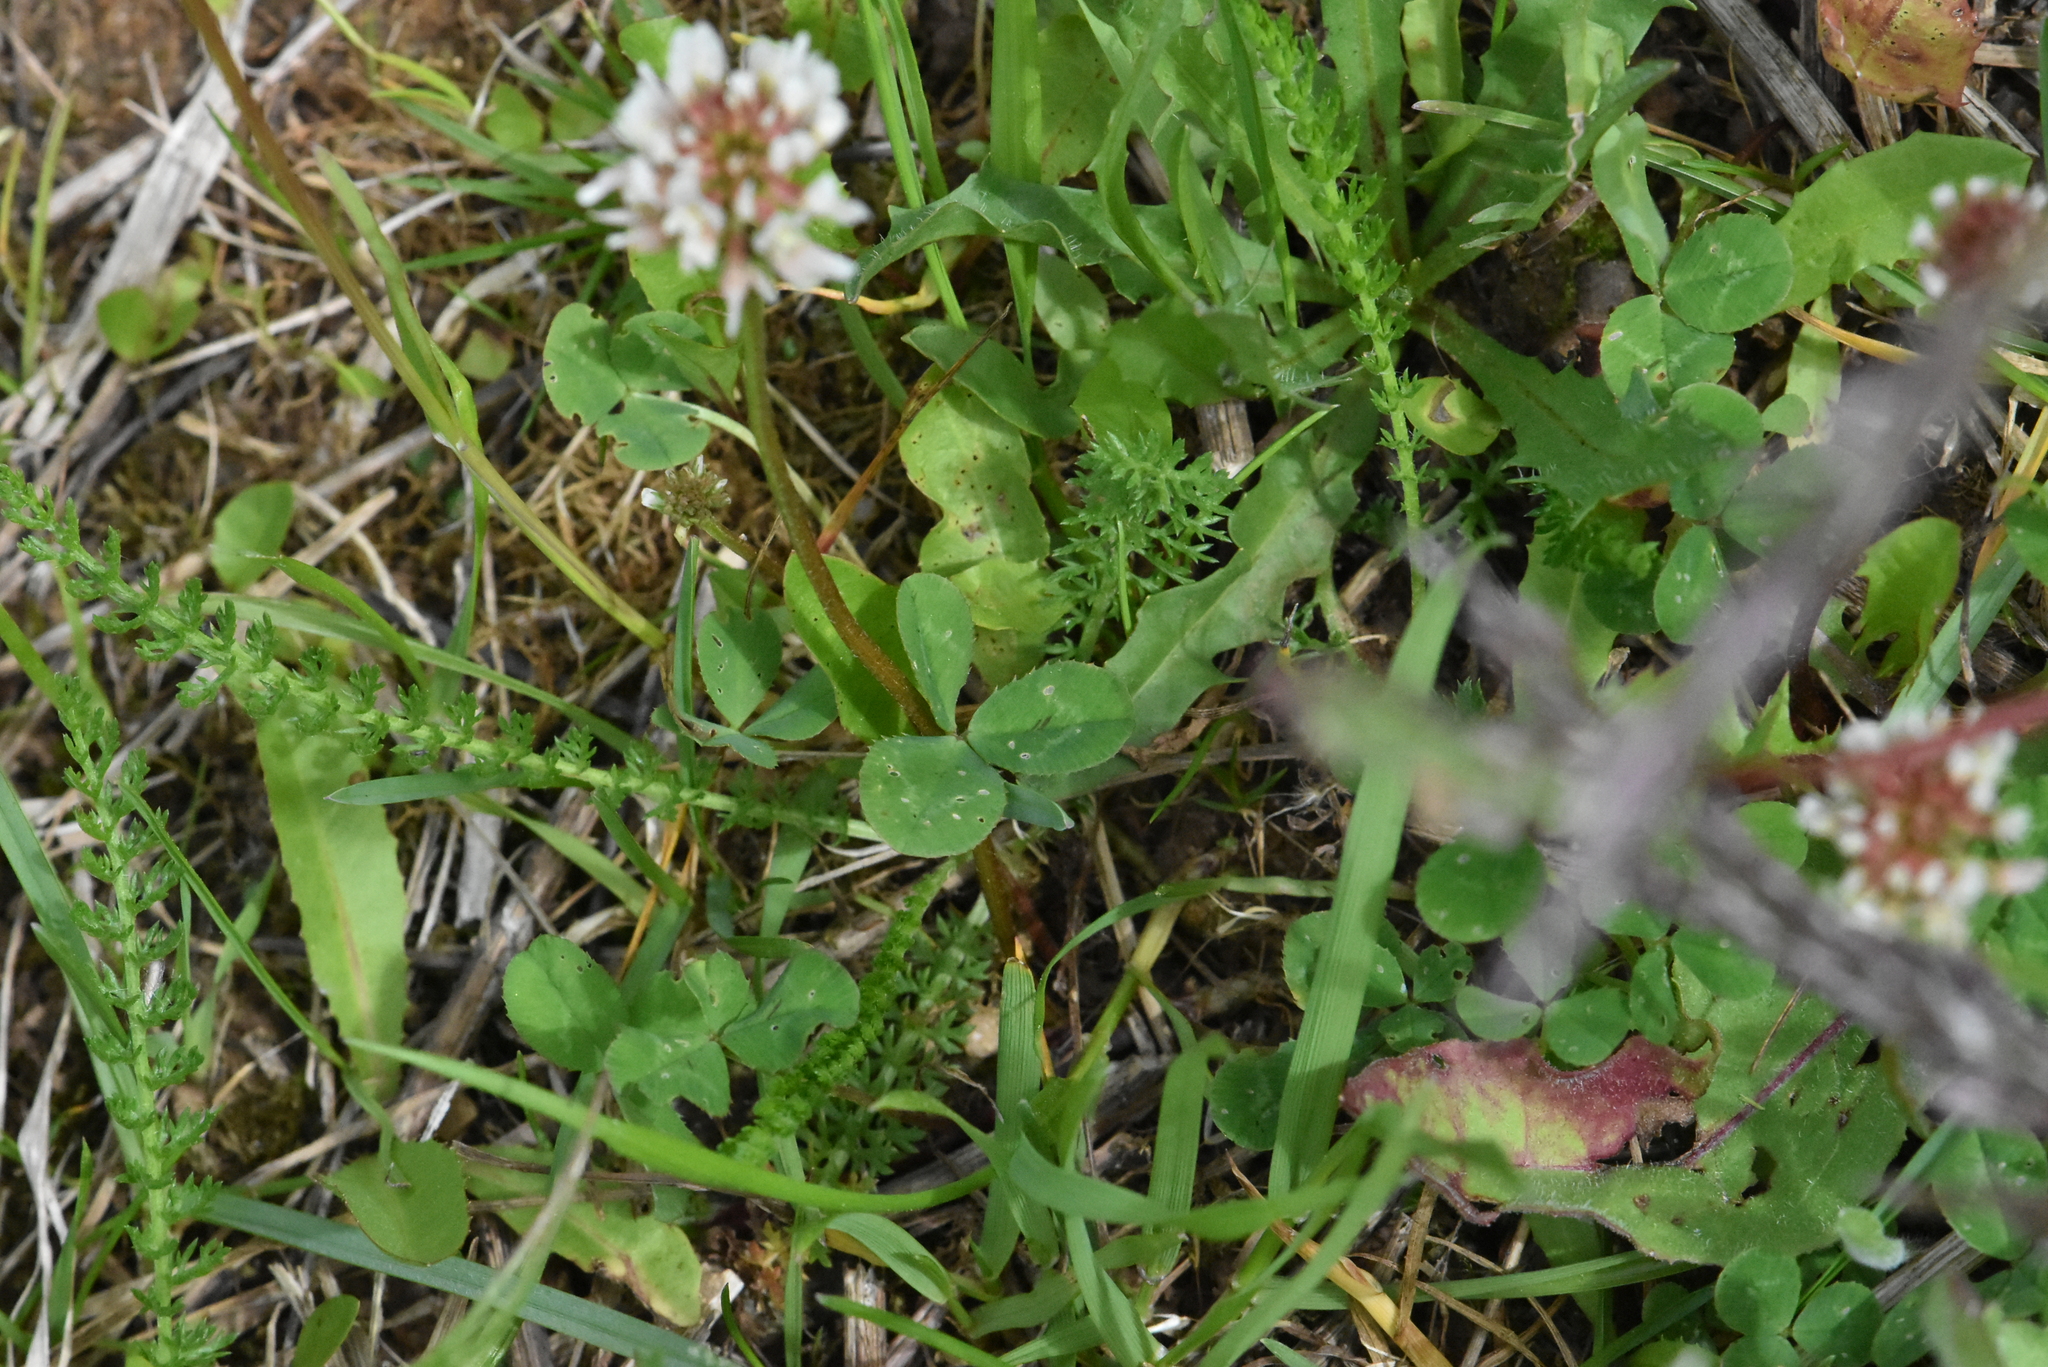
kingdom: Plantae
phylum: Tracheophyta
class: Magnoliopsida
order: Fabales
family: Fabaceae
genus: Trifolium
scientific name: Trifolium repens
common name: White clover
